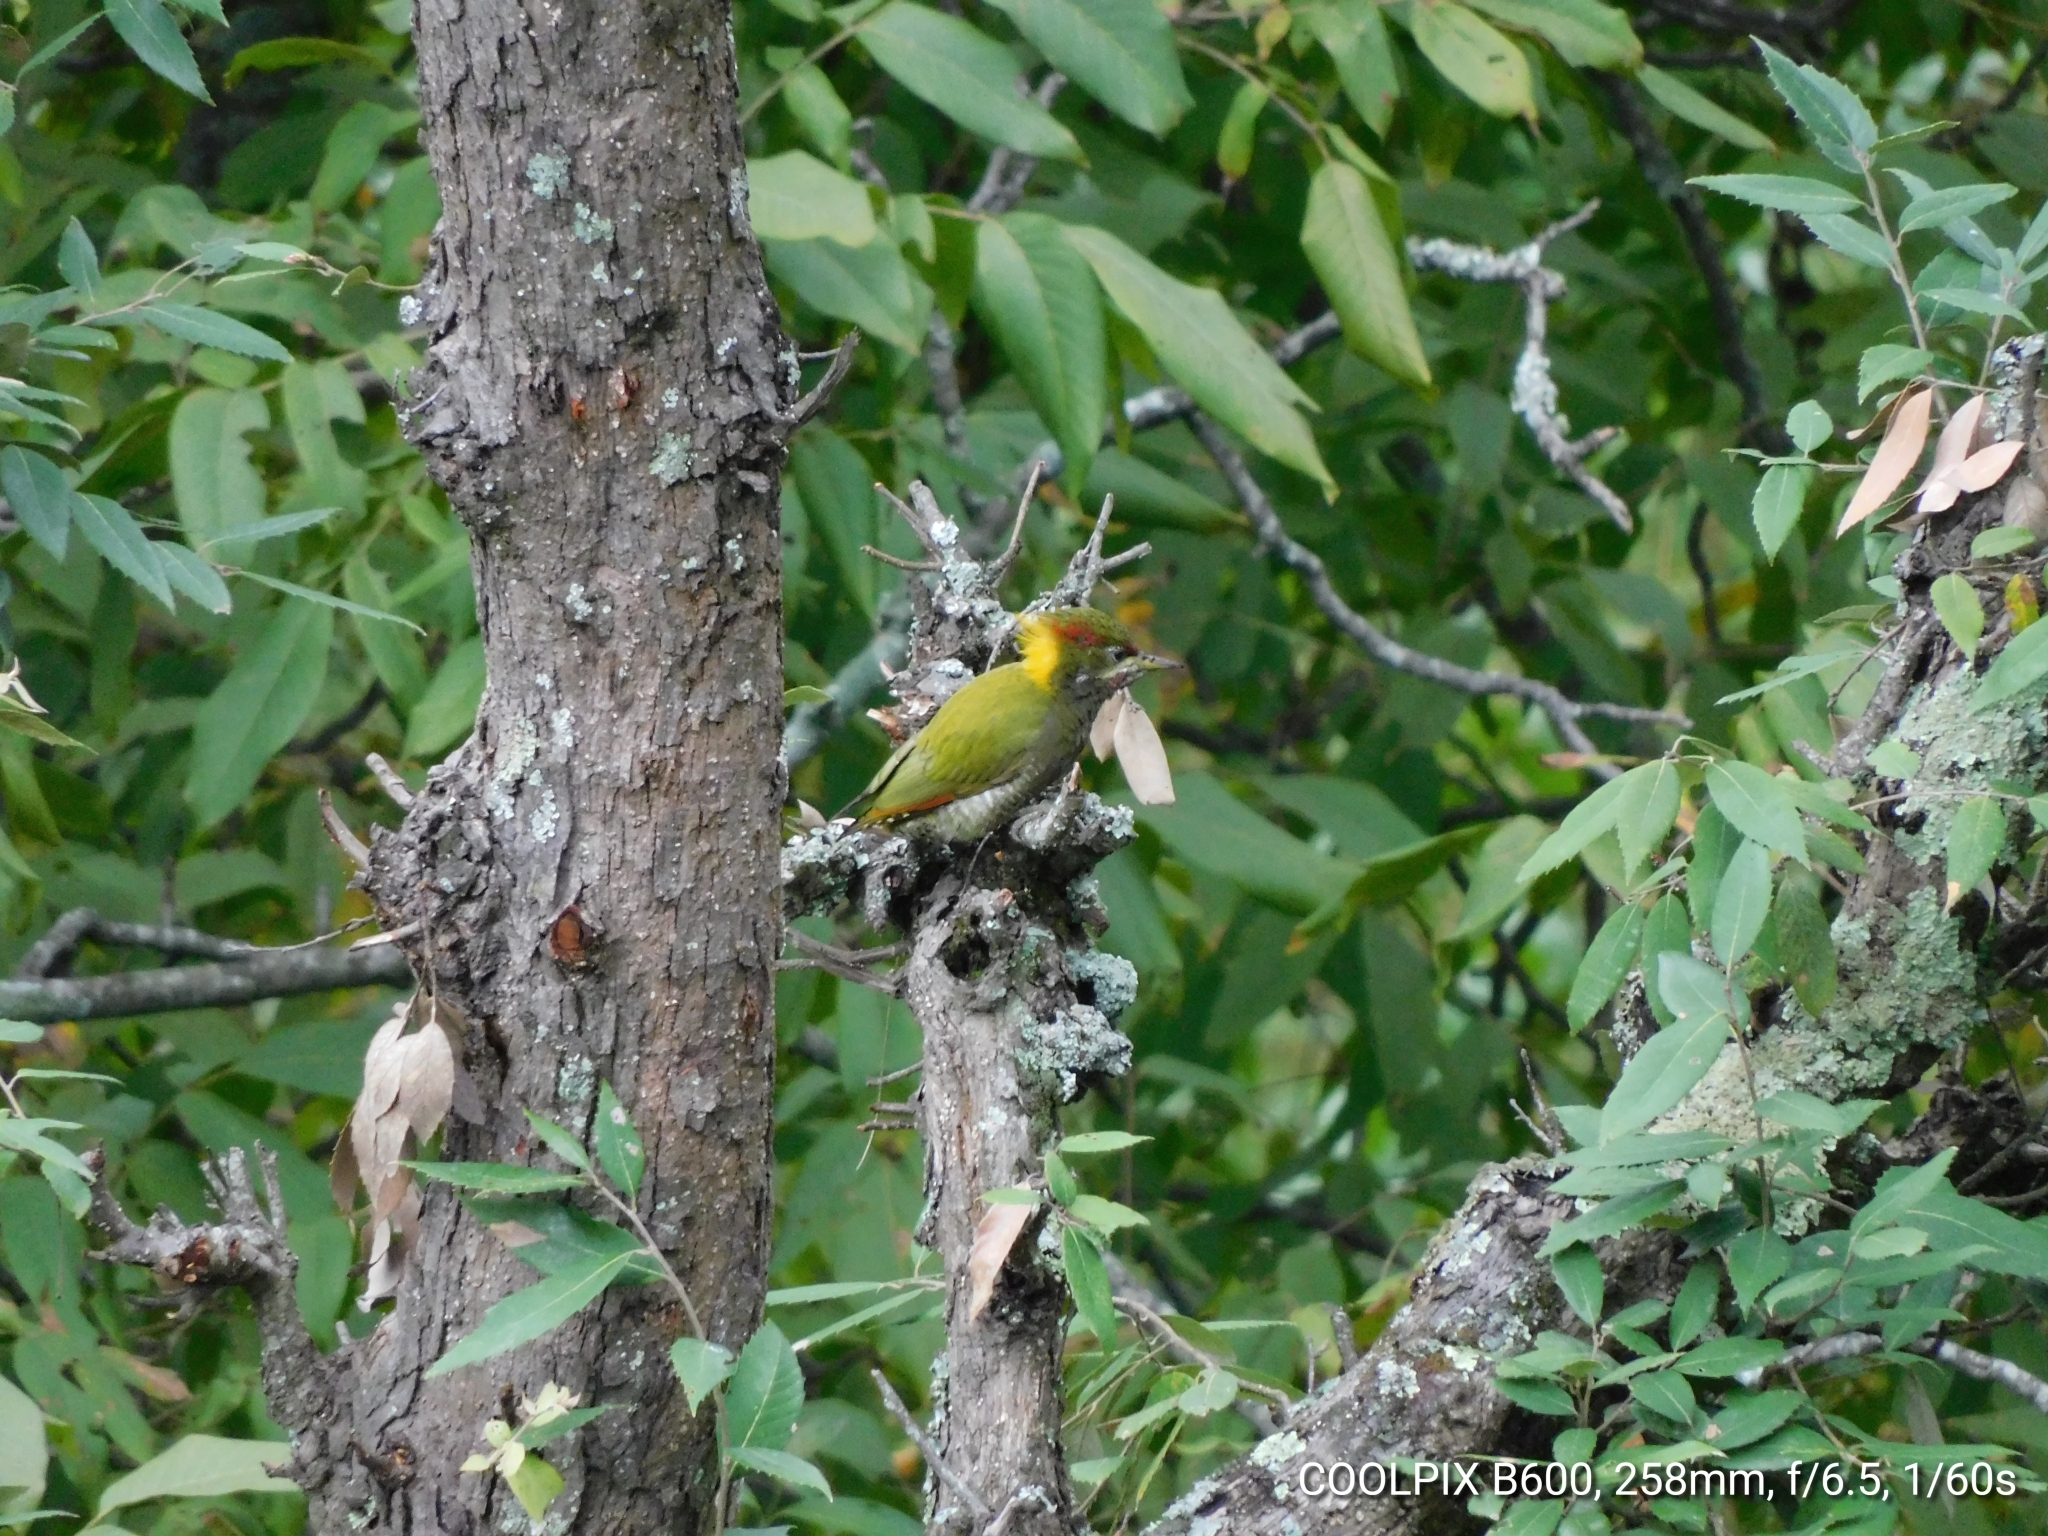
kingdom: Animalia
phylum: Chordata
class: Aves
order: Piciformes
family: Picidae
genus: Picus
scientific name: Picus chlorolophus
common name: Lesser yellownape
